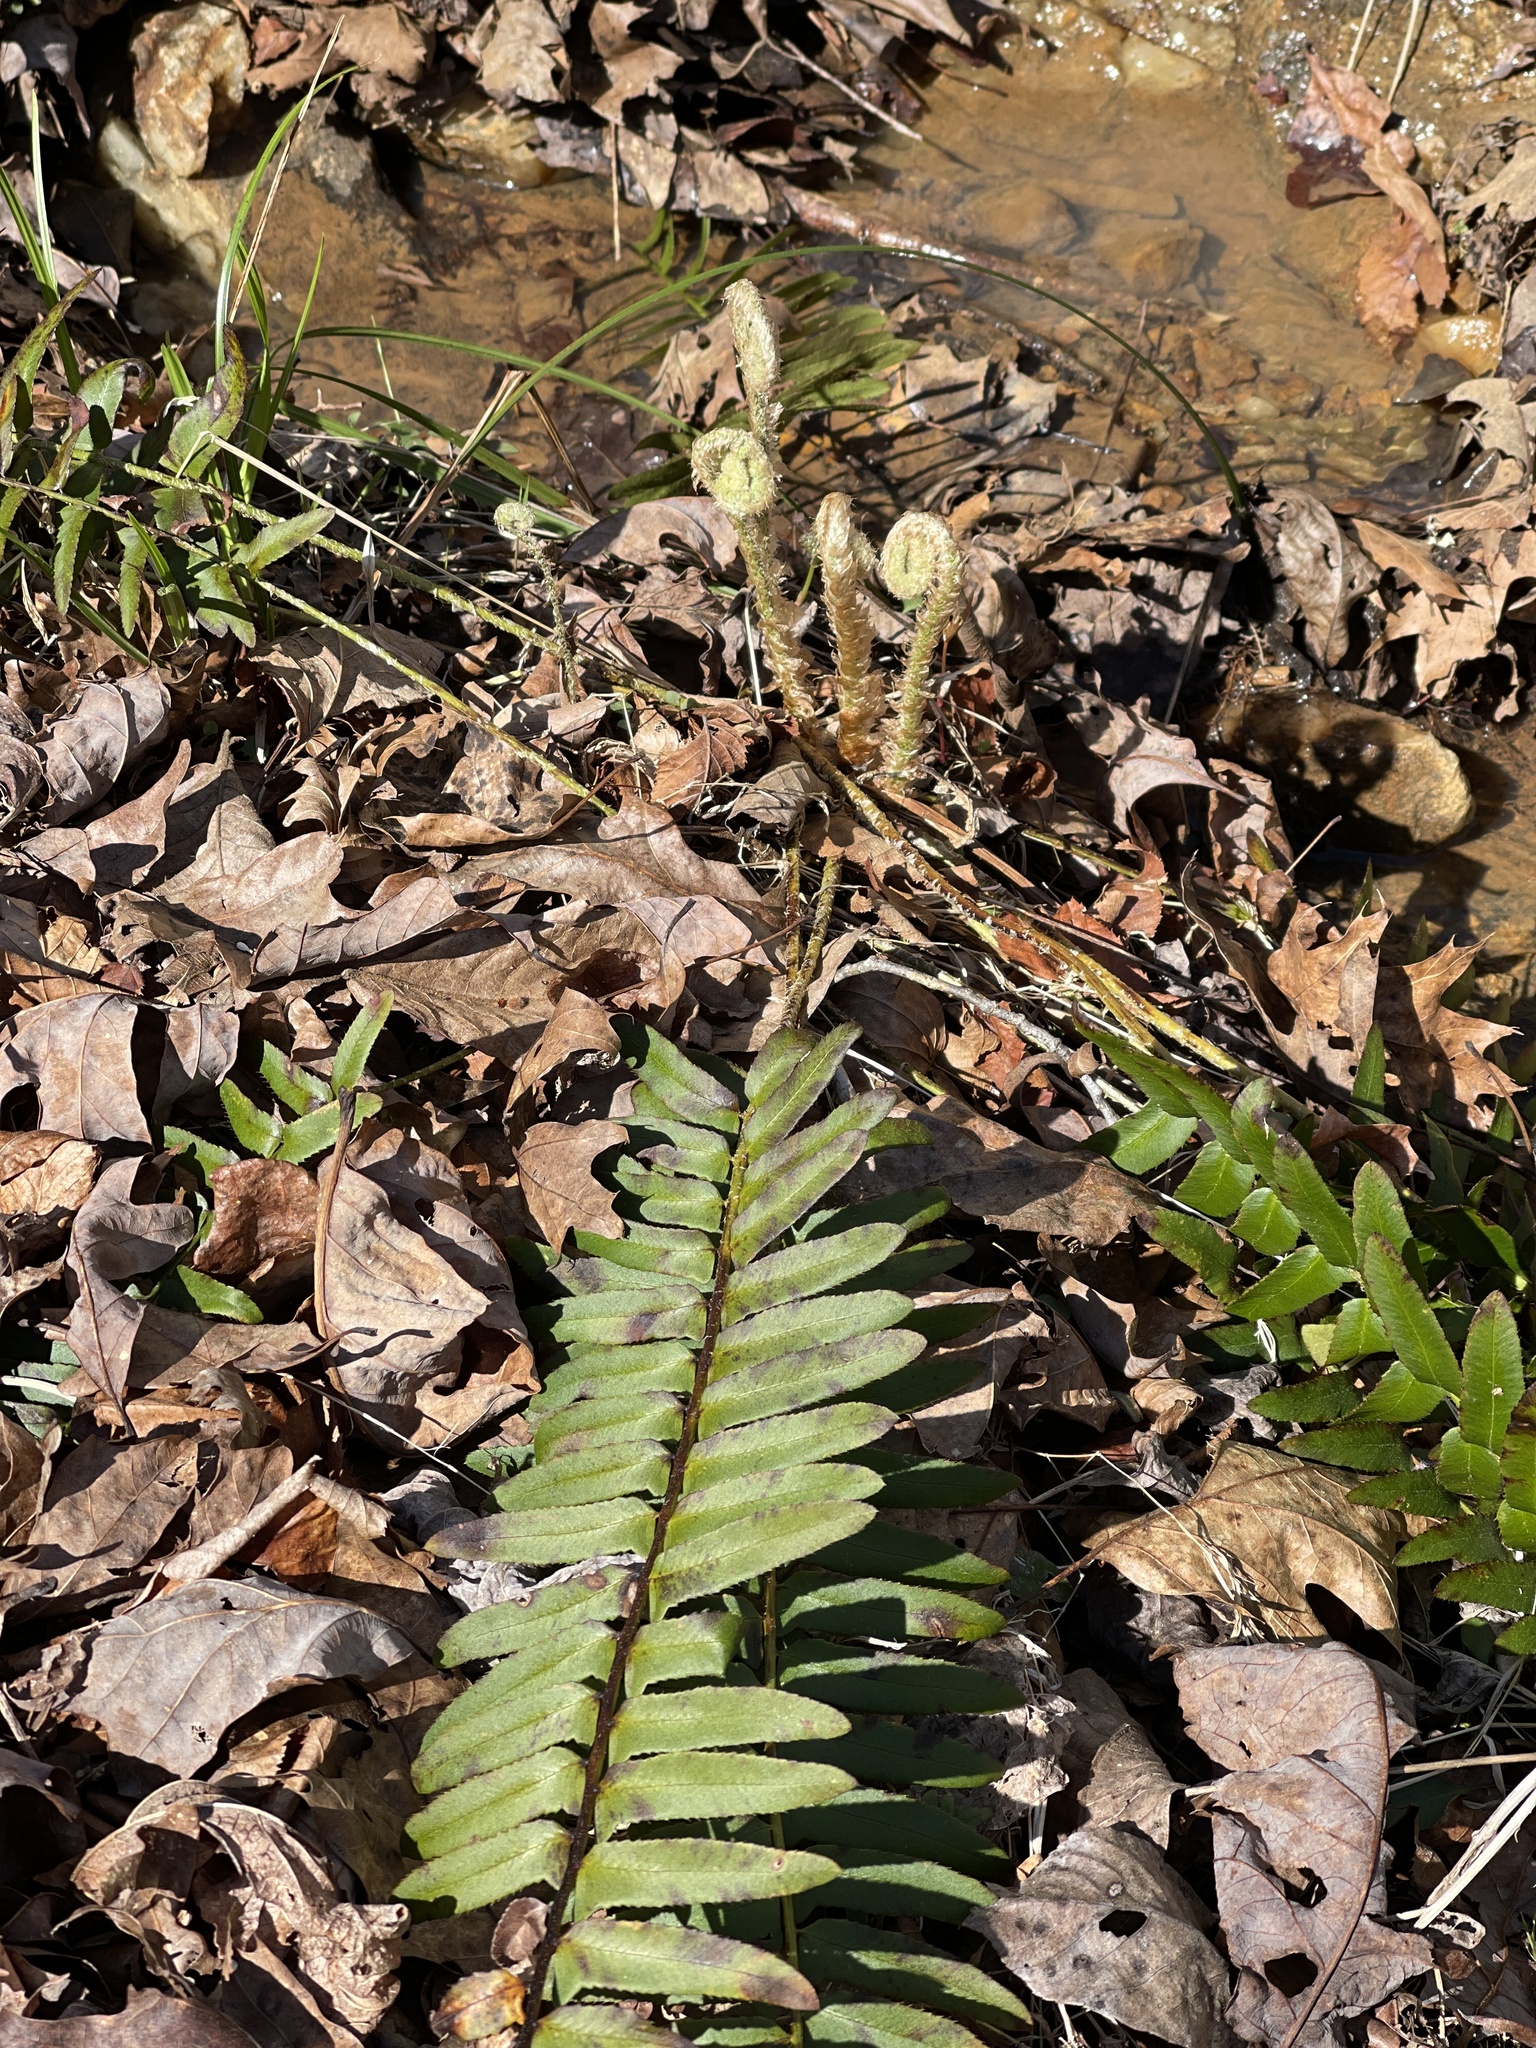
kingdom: Plantae
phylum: Tracheophyta
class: Polypodiopsida
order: Polypodiales
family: Dryopteridaceae
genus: Polystichum
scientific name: Polystichum acrostichoides
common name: Christmas fern
